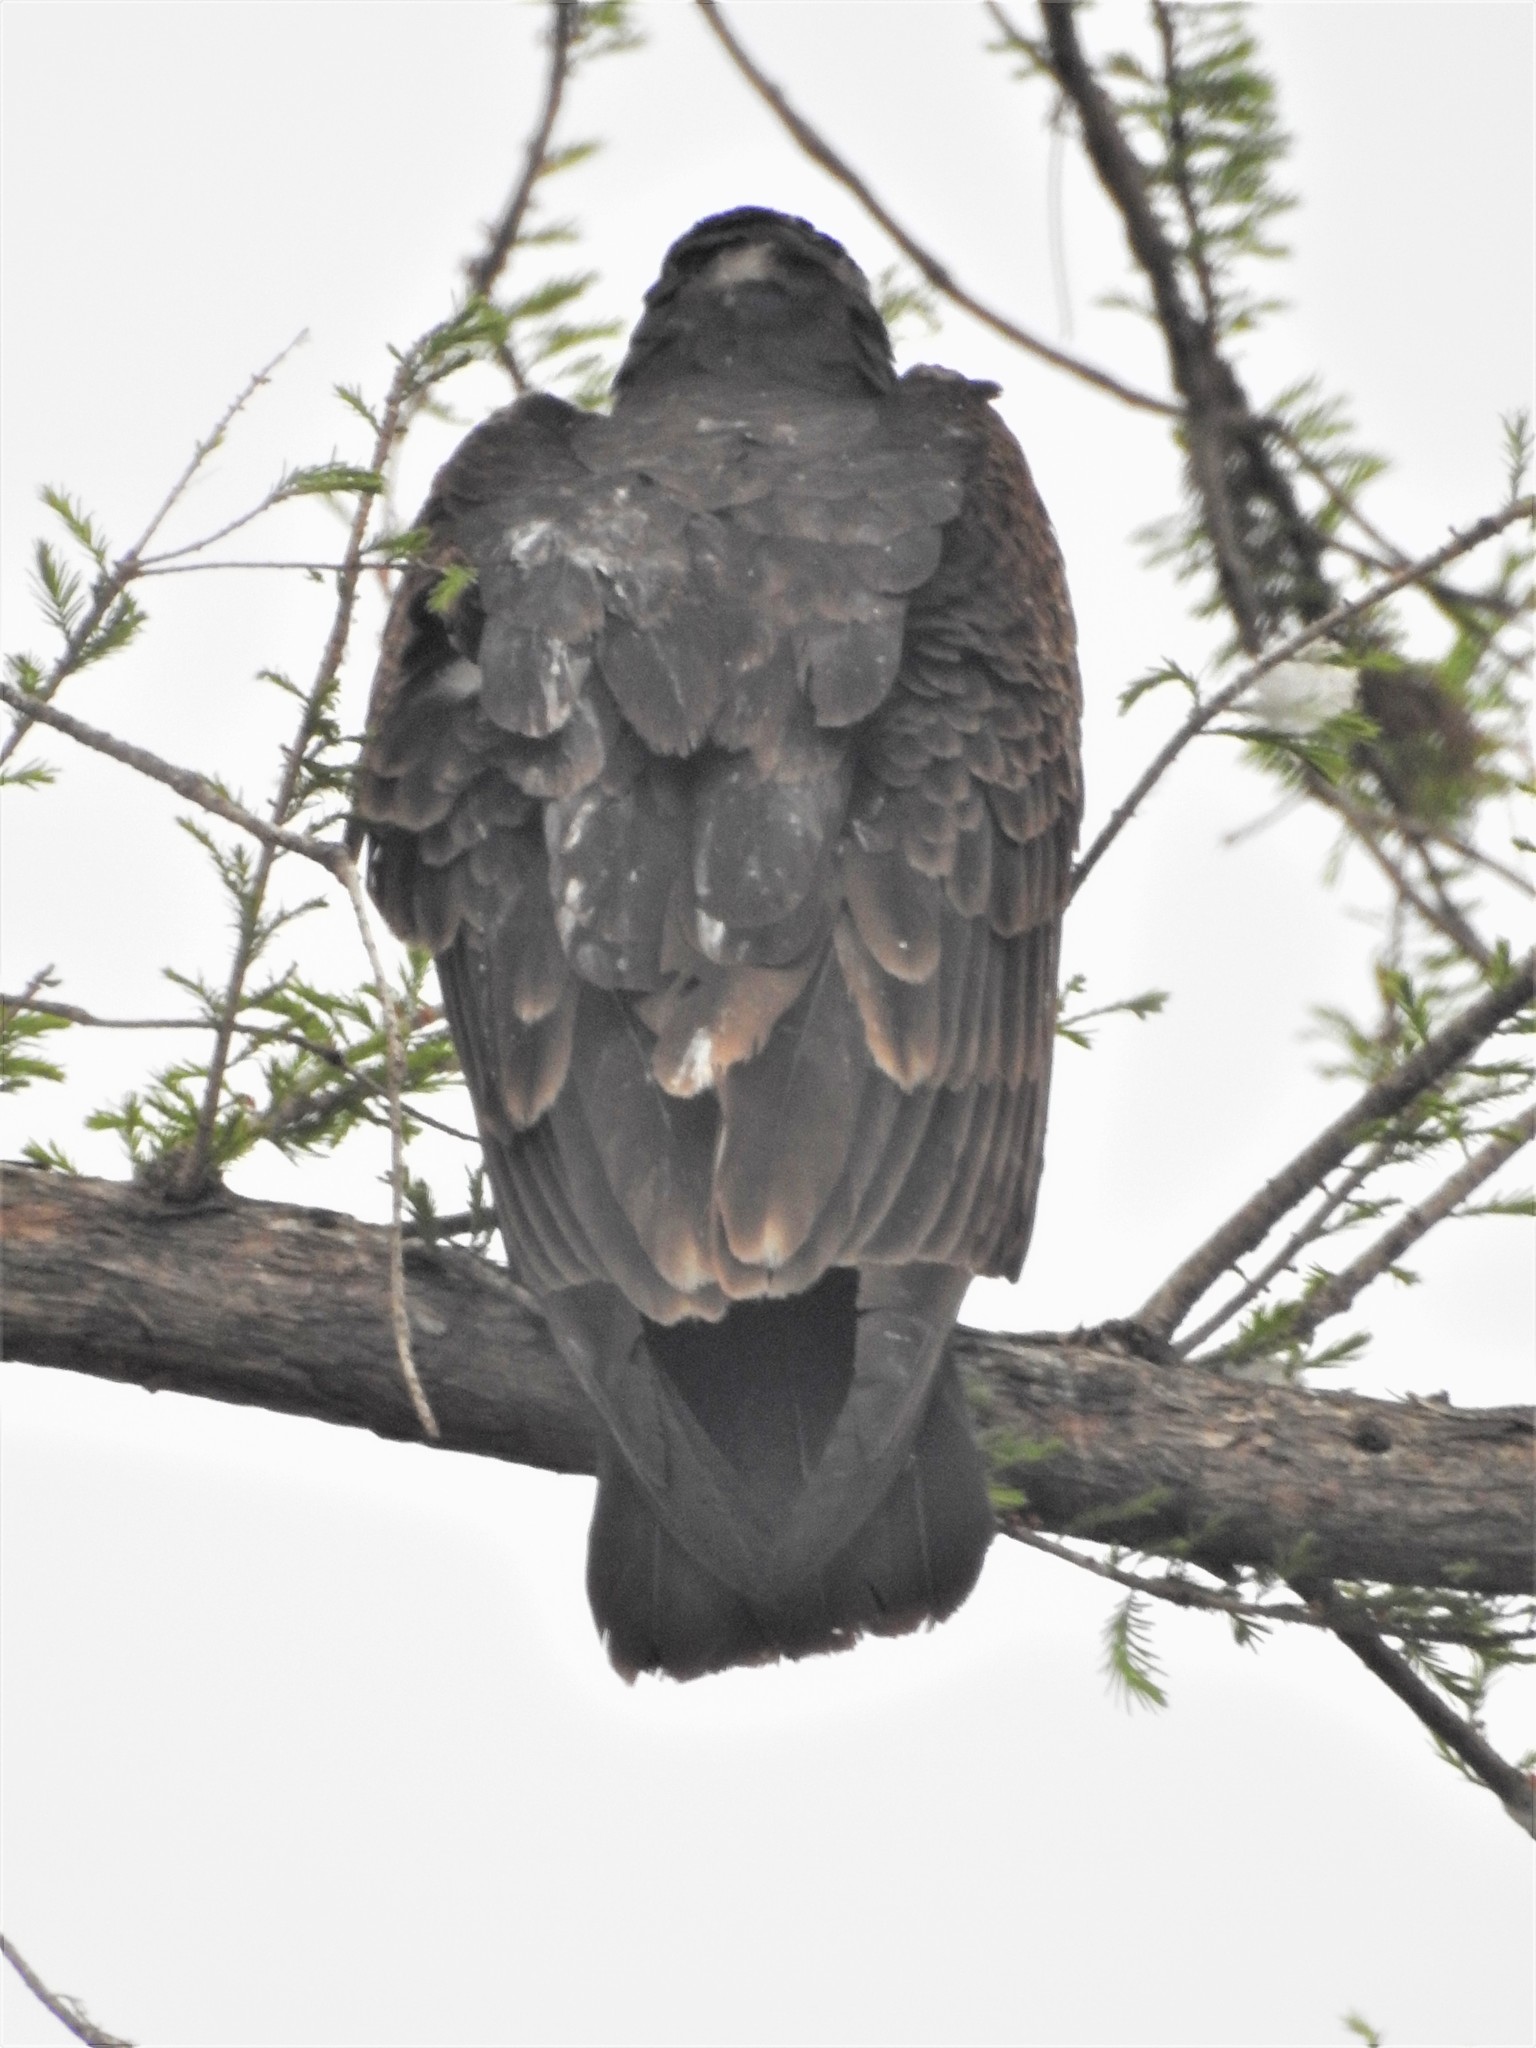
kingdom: Animalia
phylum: Chordata
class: Aves
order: Accipitriformes
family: Cathartidae
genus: Cathartes
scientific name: Cathartes aura
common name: Turkey vulture
